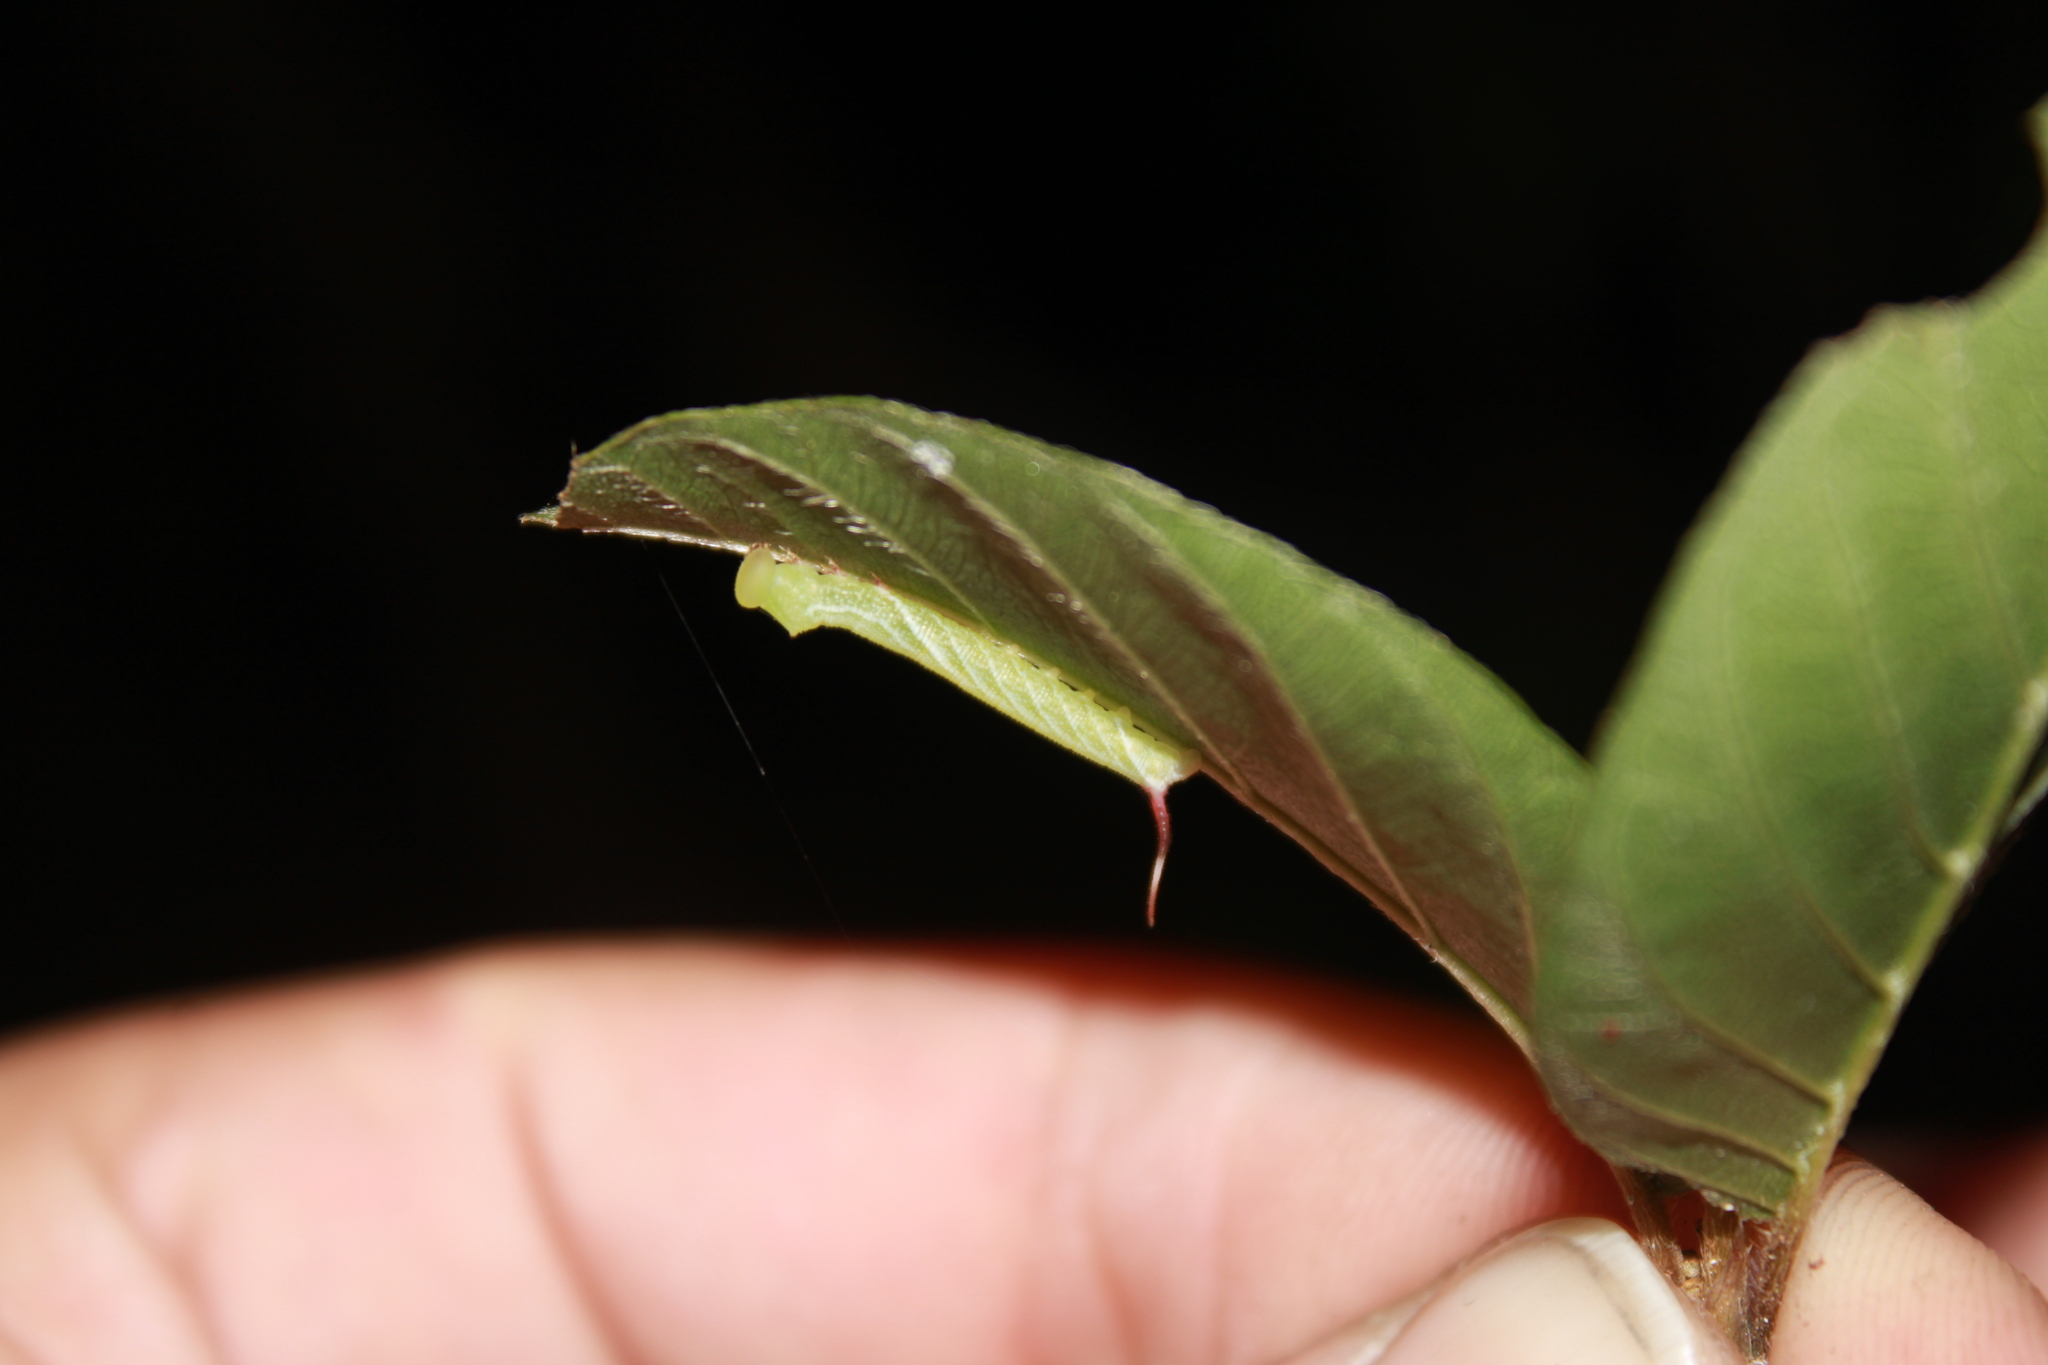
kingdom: Animalia
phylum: Arthropoda
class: Insecta
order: Lepidoptera
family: Sphingidae
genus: Eupyrrhoglossum
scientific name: Eupyrrhoglossum sagra
